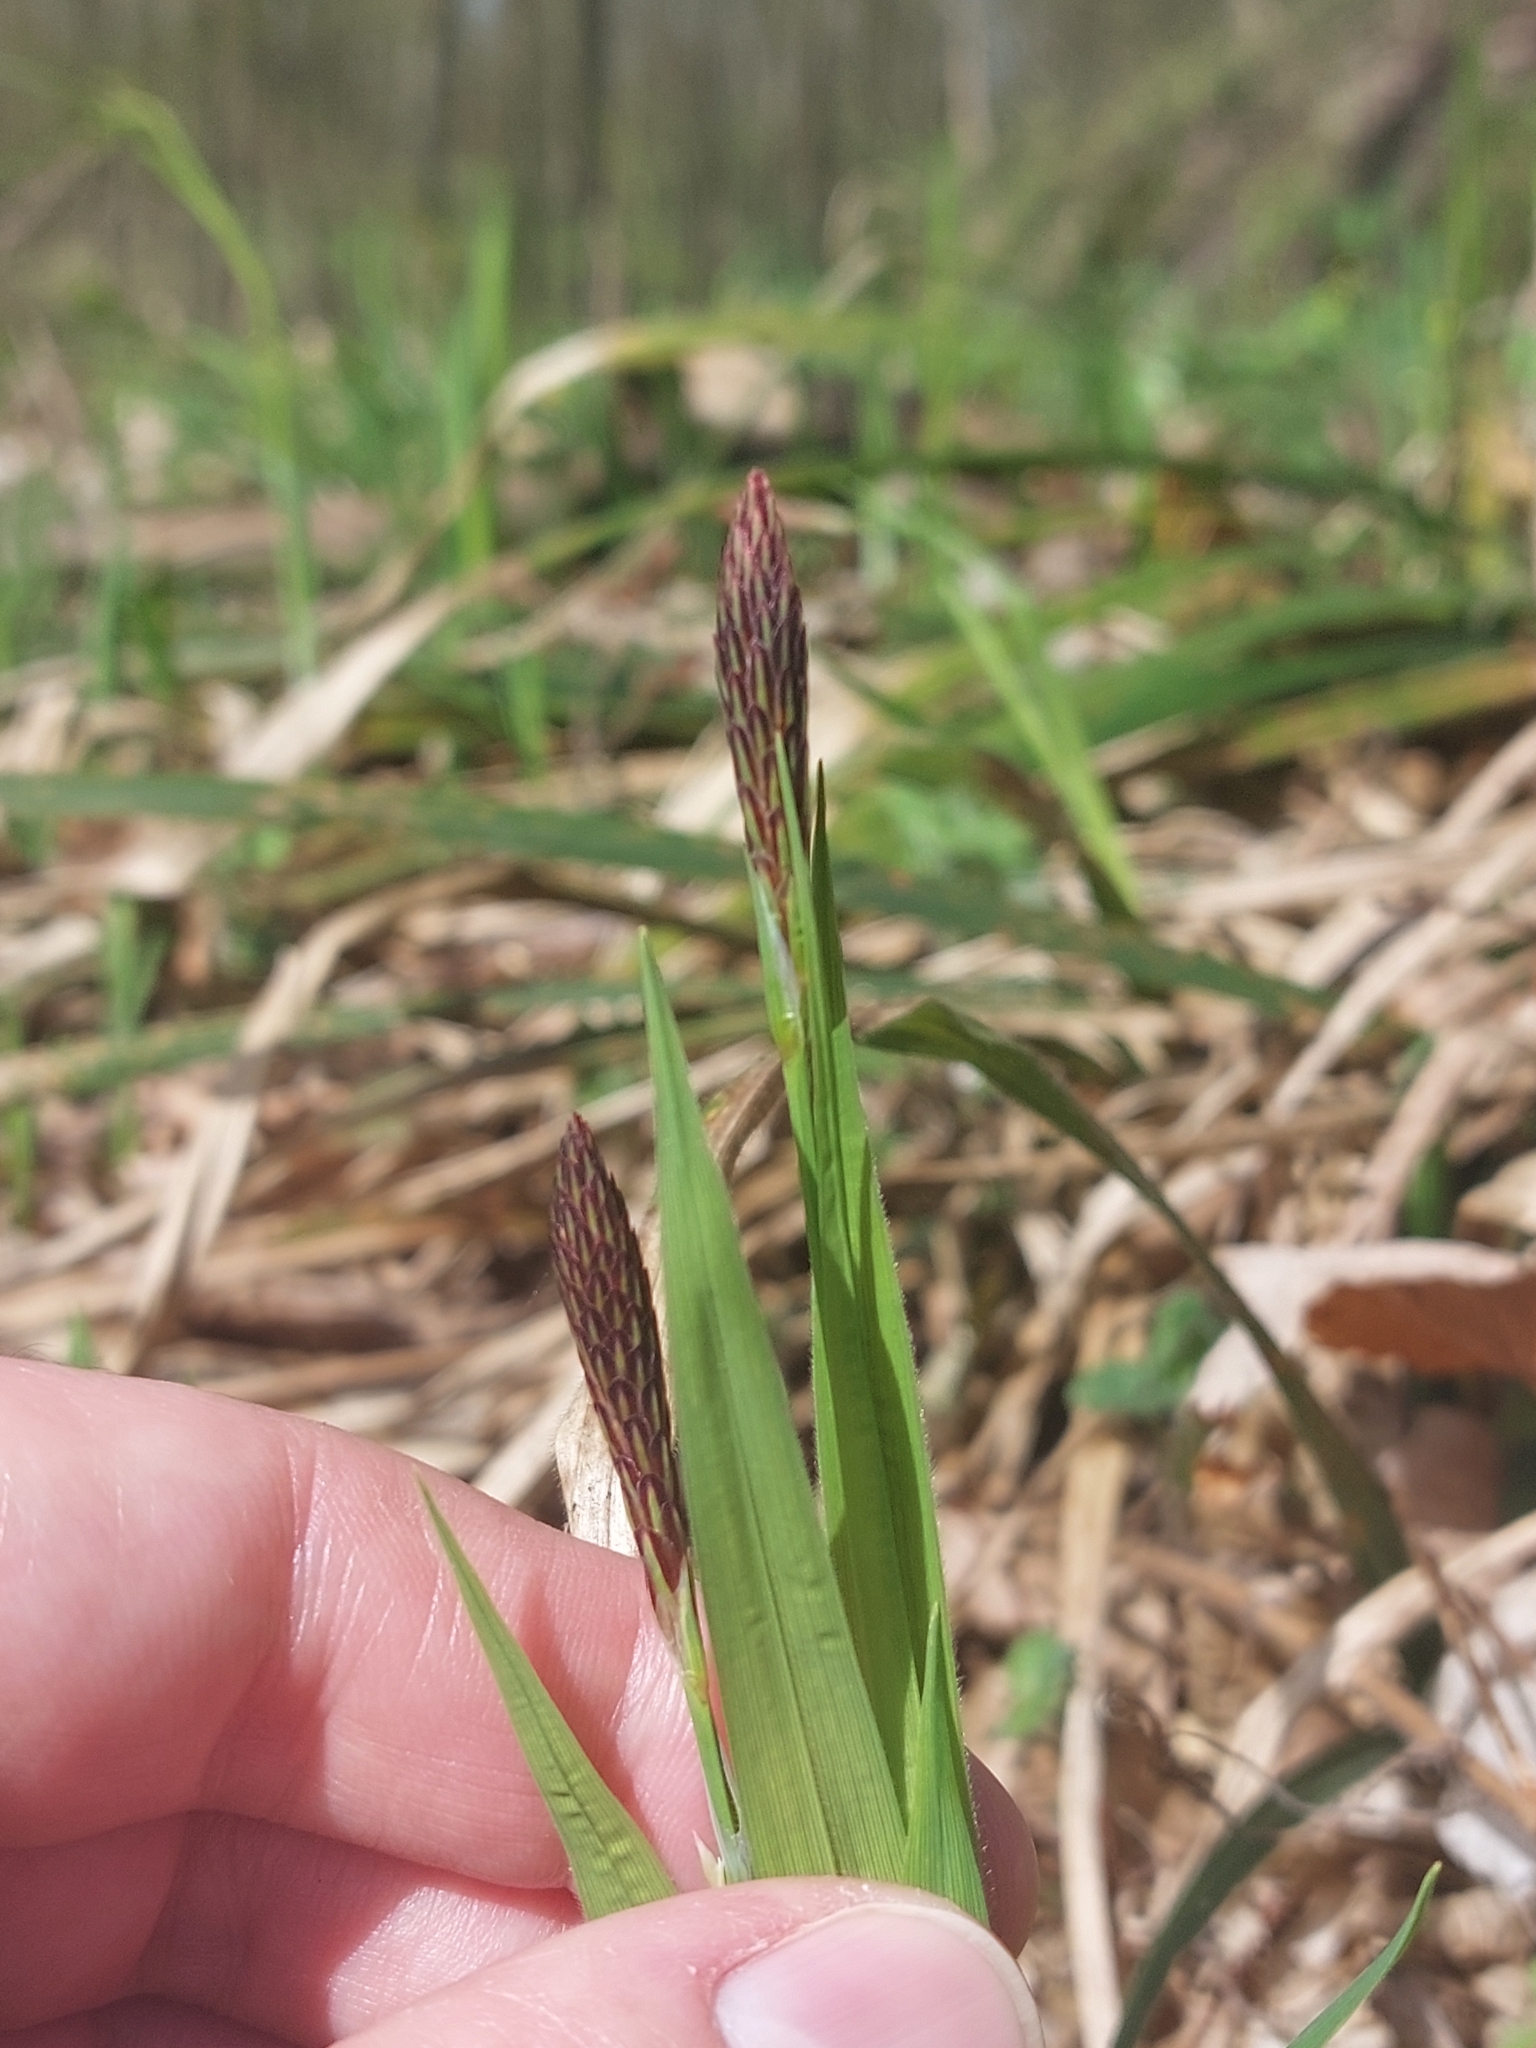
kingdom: Plantae
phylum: Tracheophyta
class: Liliopsida
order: Poales
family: Cyperaceae
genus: Carex
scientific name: Carex pilosa
